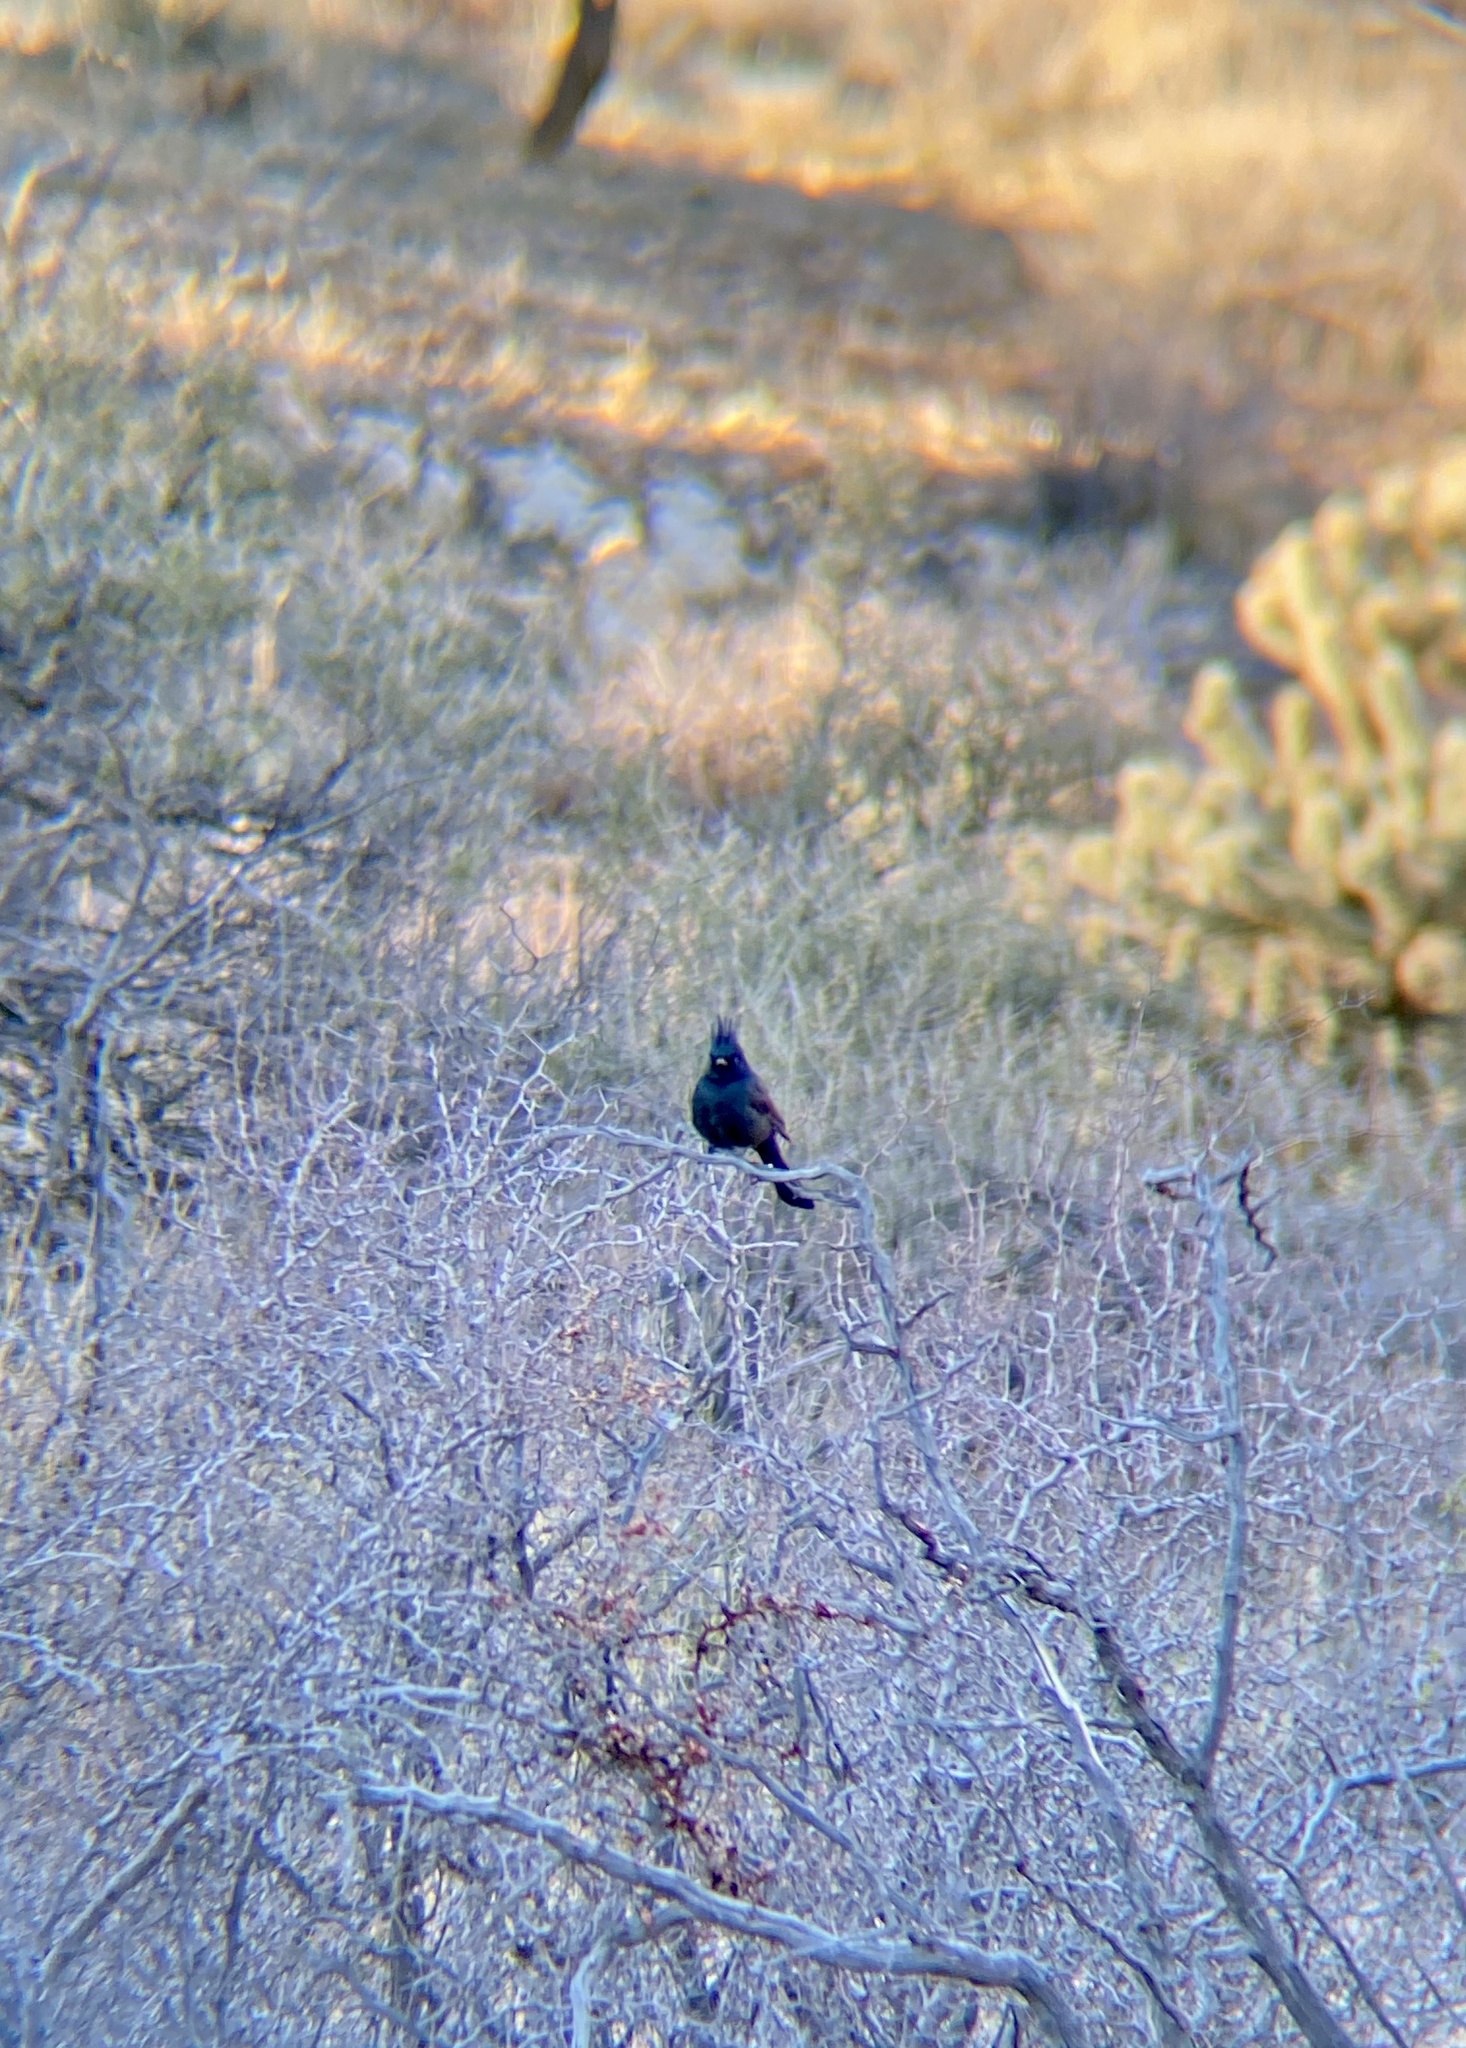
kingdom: Animalia
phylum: Chordata
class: Aves
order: Passeriformes
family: Ptilogonatidae
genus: Phainopepla
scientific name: Phainopepla nitens
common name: Phainopepla
